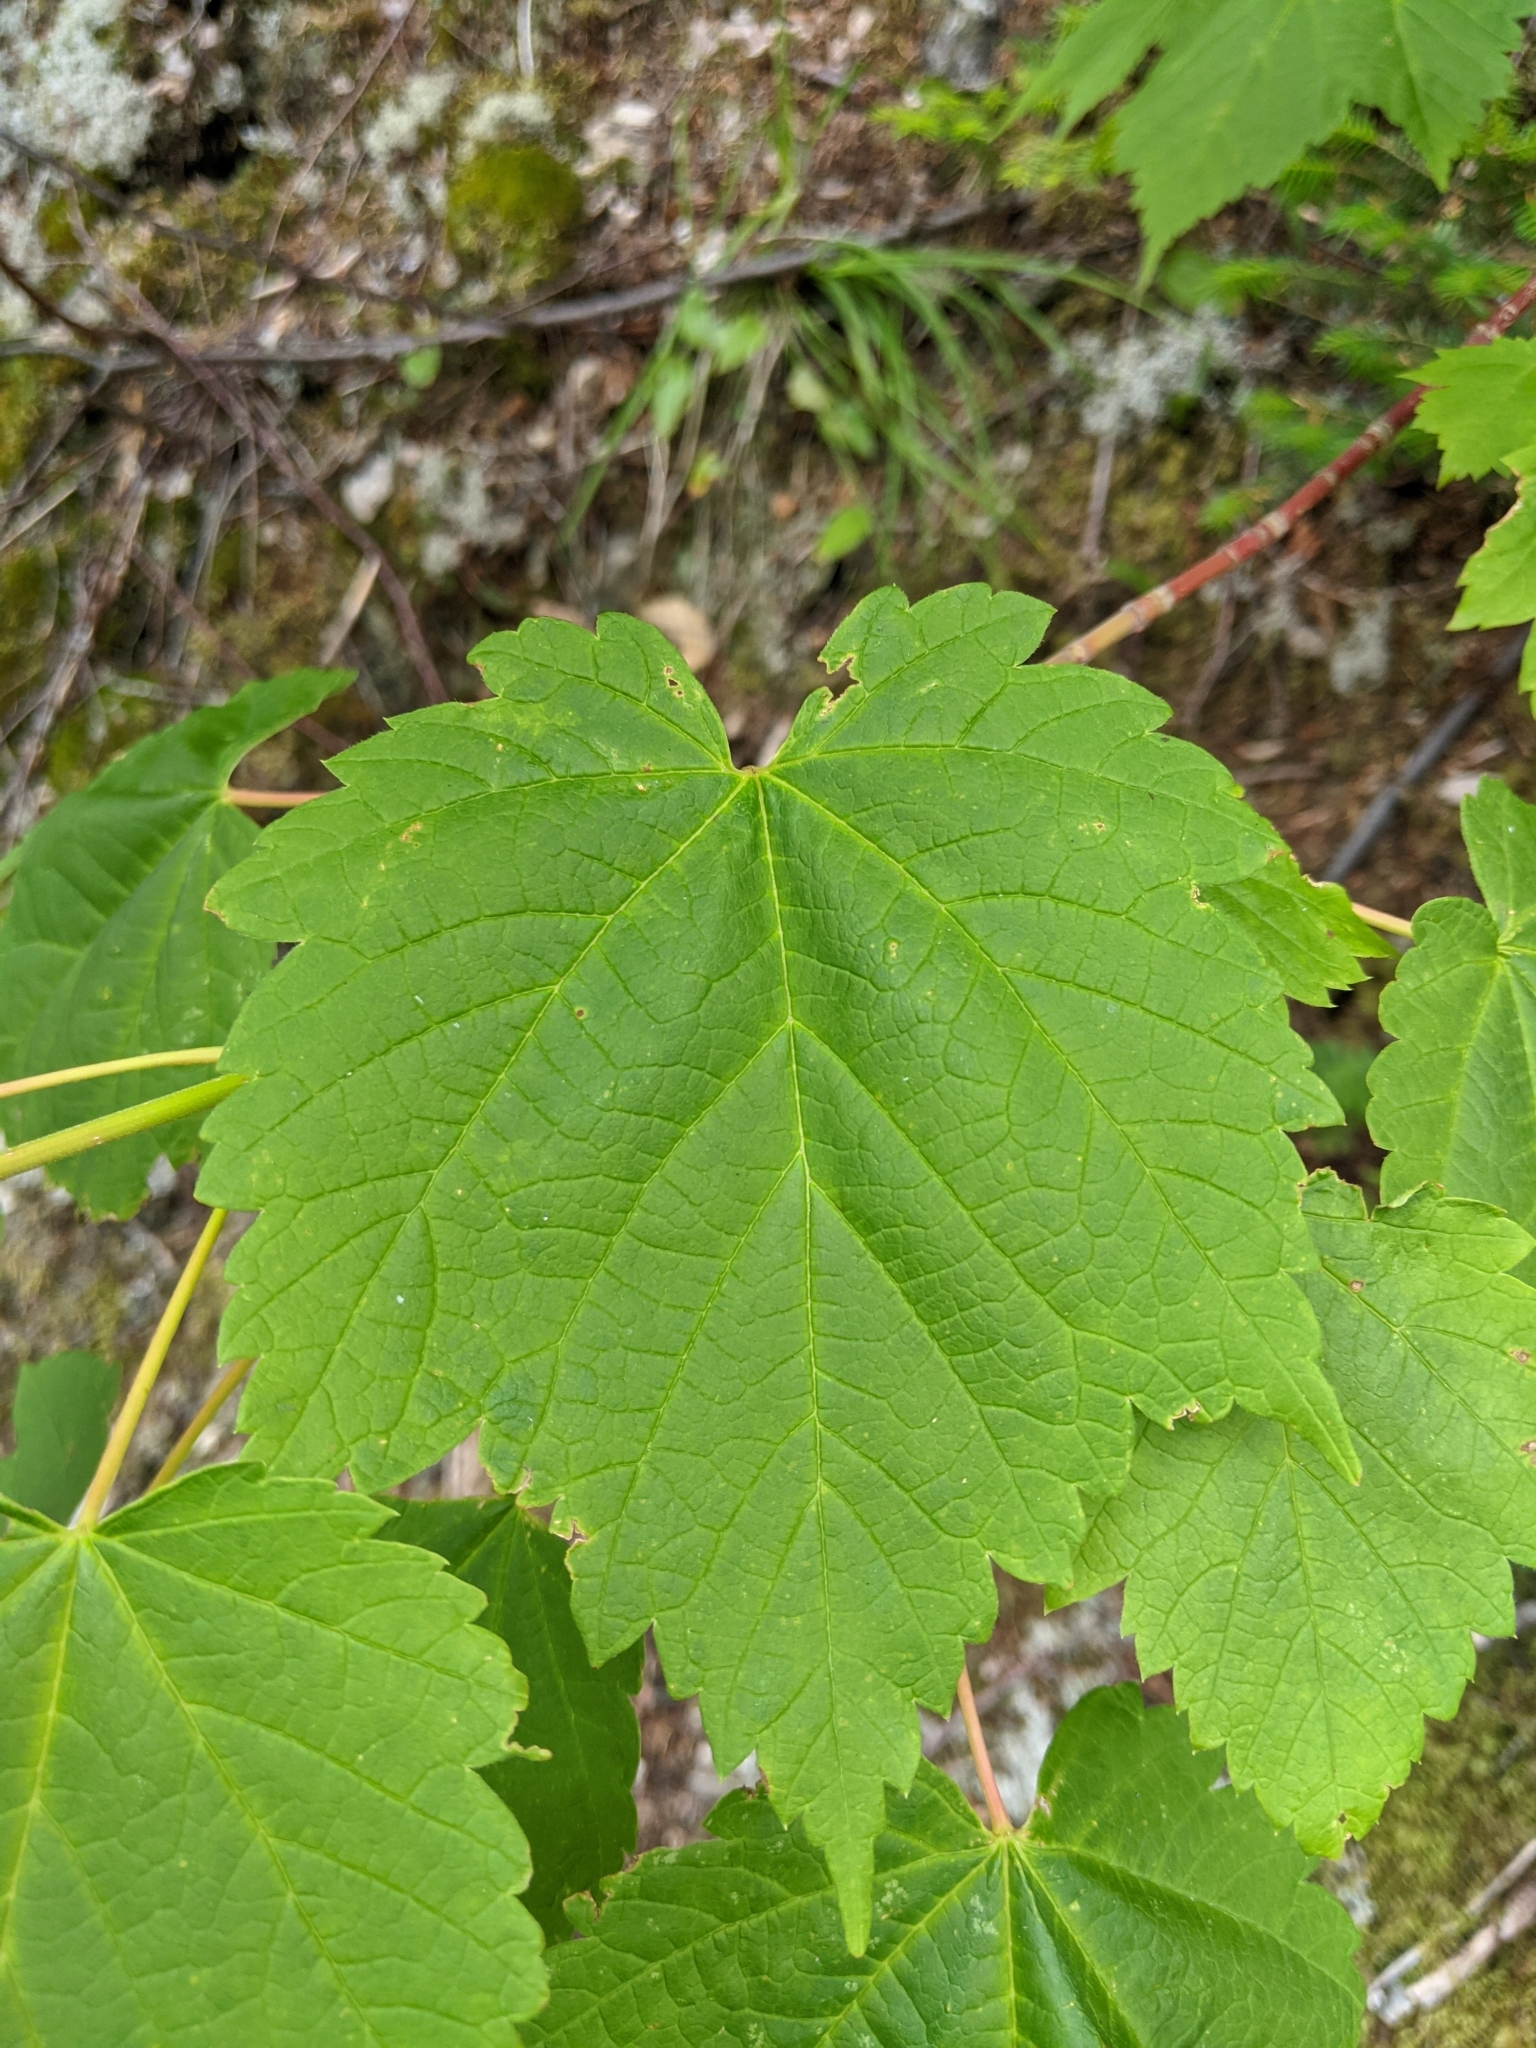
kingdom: Plantae
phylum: Tracheophyta
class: Magnoliopsida
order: Sapindales
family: Sapindaceae
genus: Acer
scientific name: Acer spicatum
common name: Mountain maple
